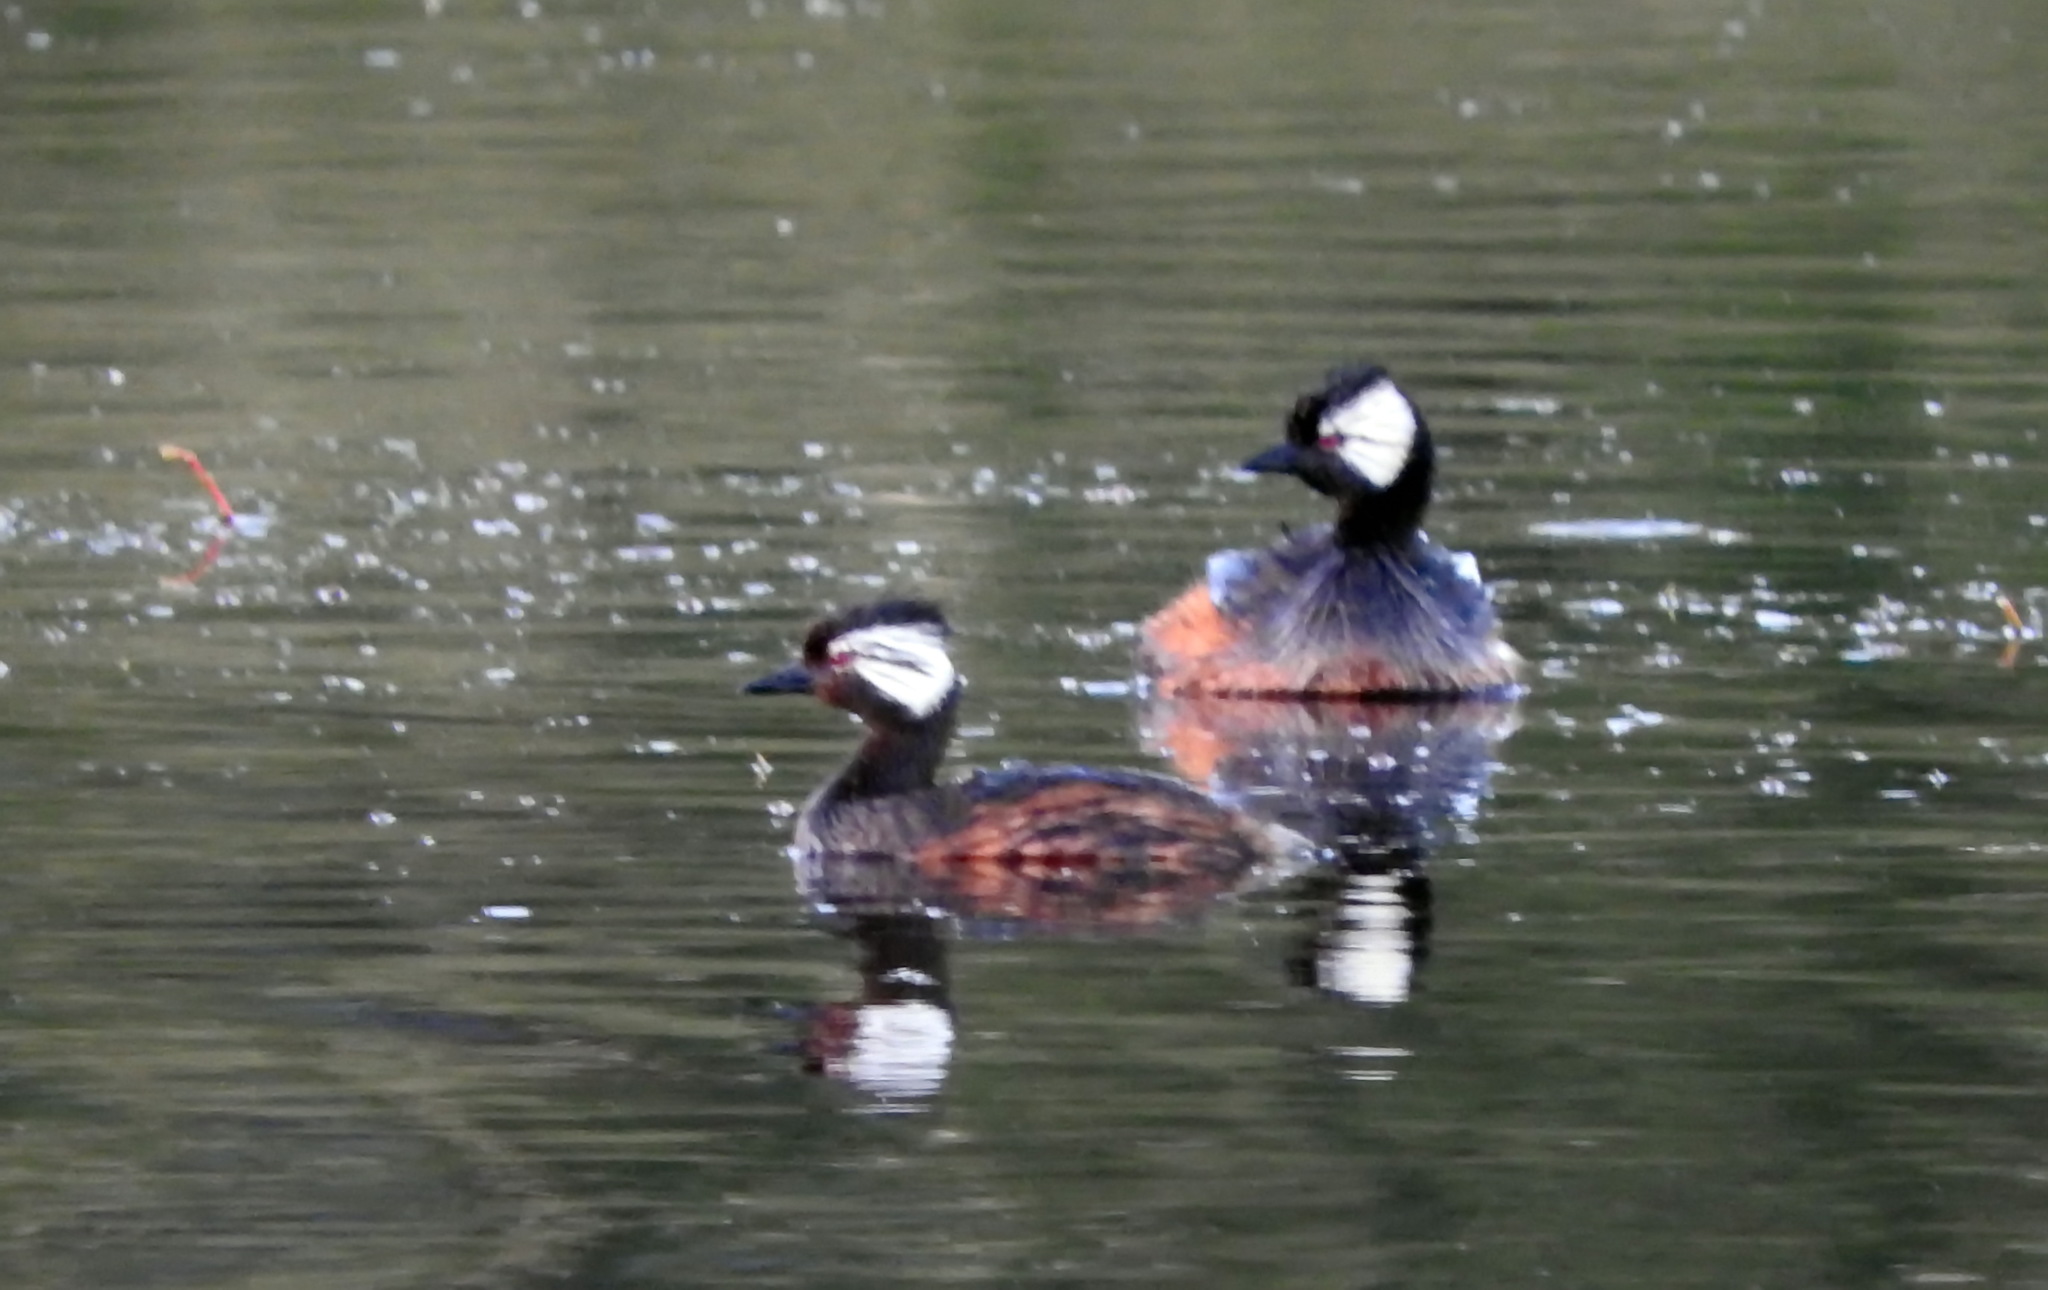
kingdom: Animalia
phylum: Chordata
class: Aves
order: Podicipediformes
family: Podicipedidae
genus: Rollandia
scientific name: Rollandia rolland
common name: White-tufted grebe
